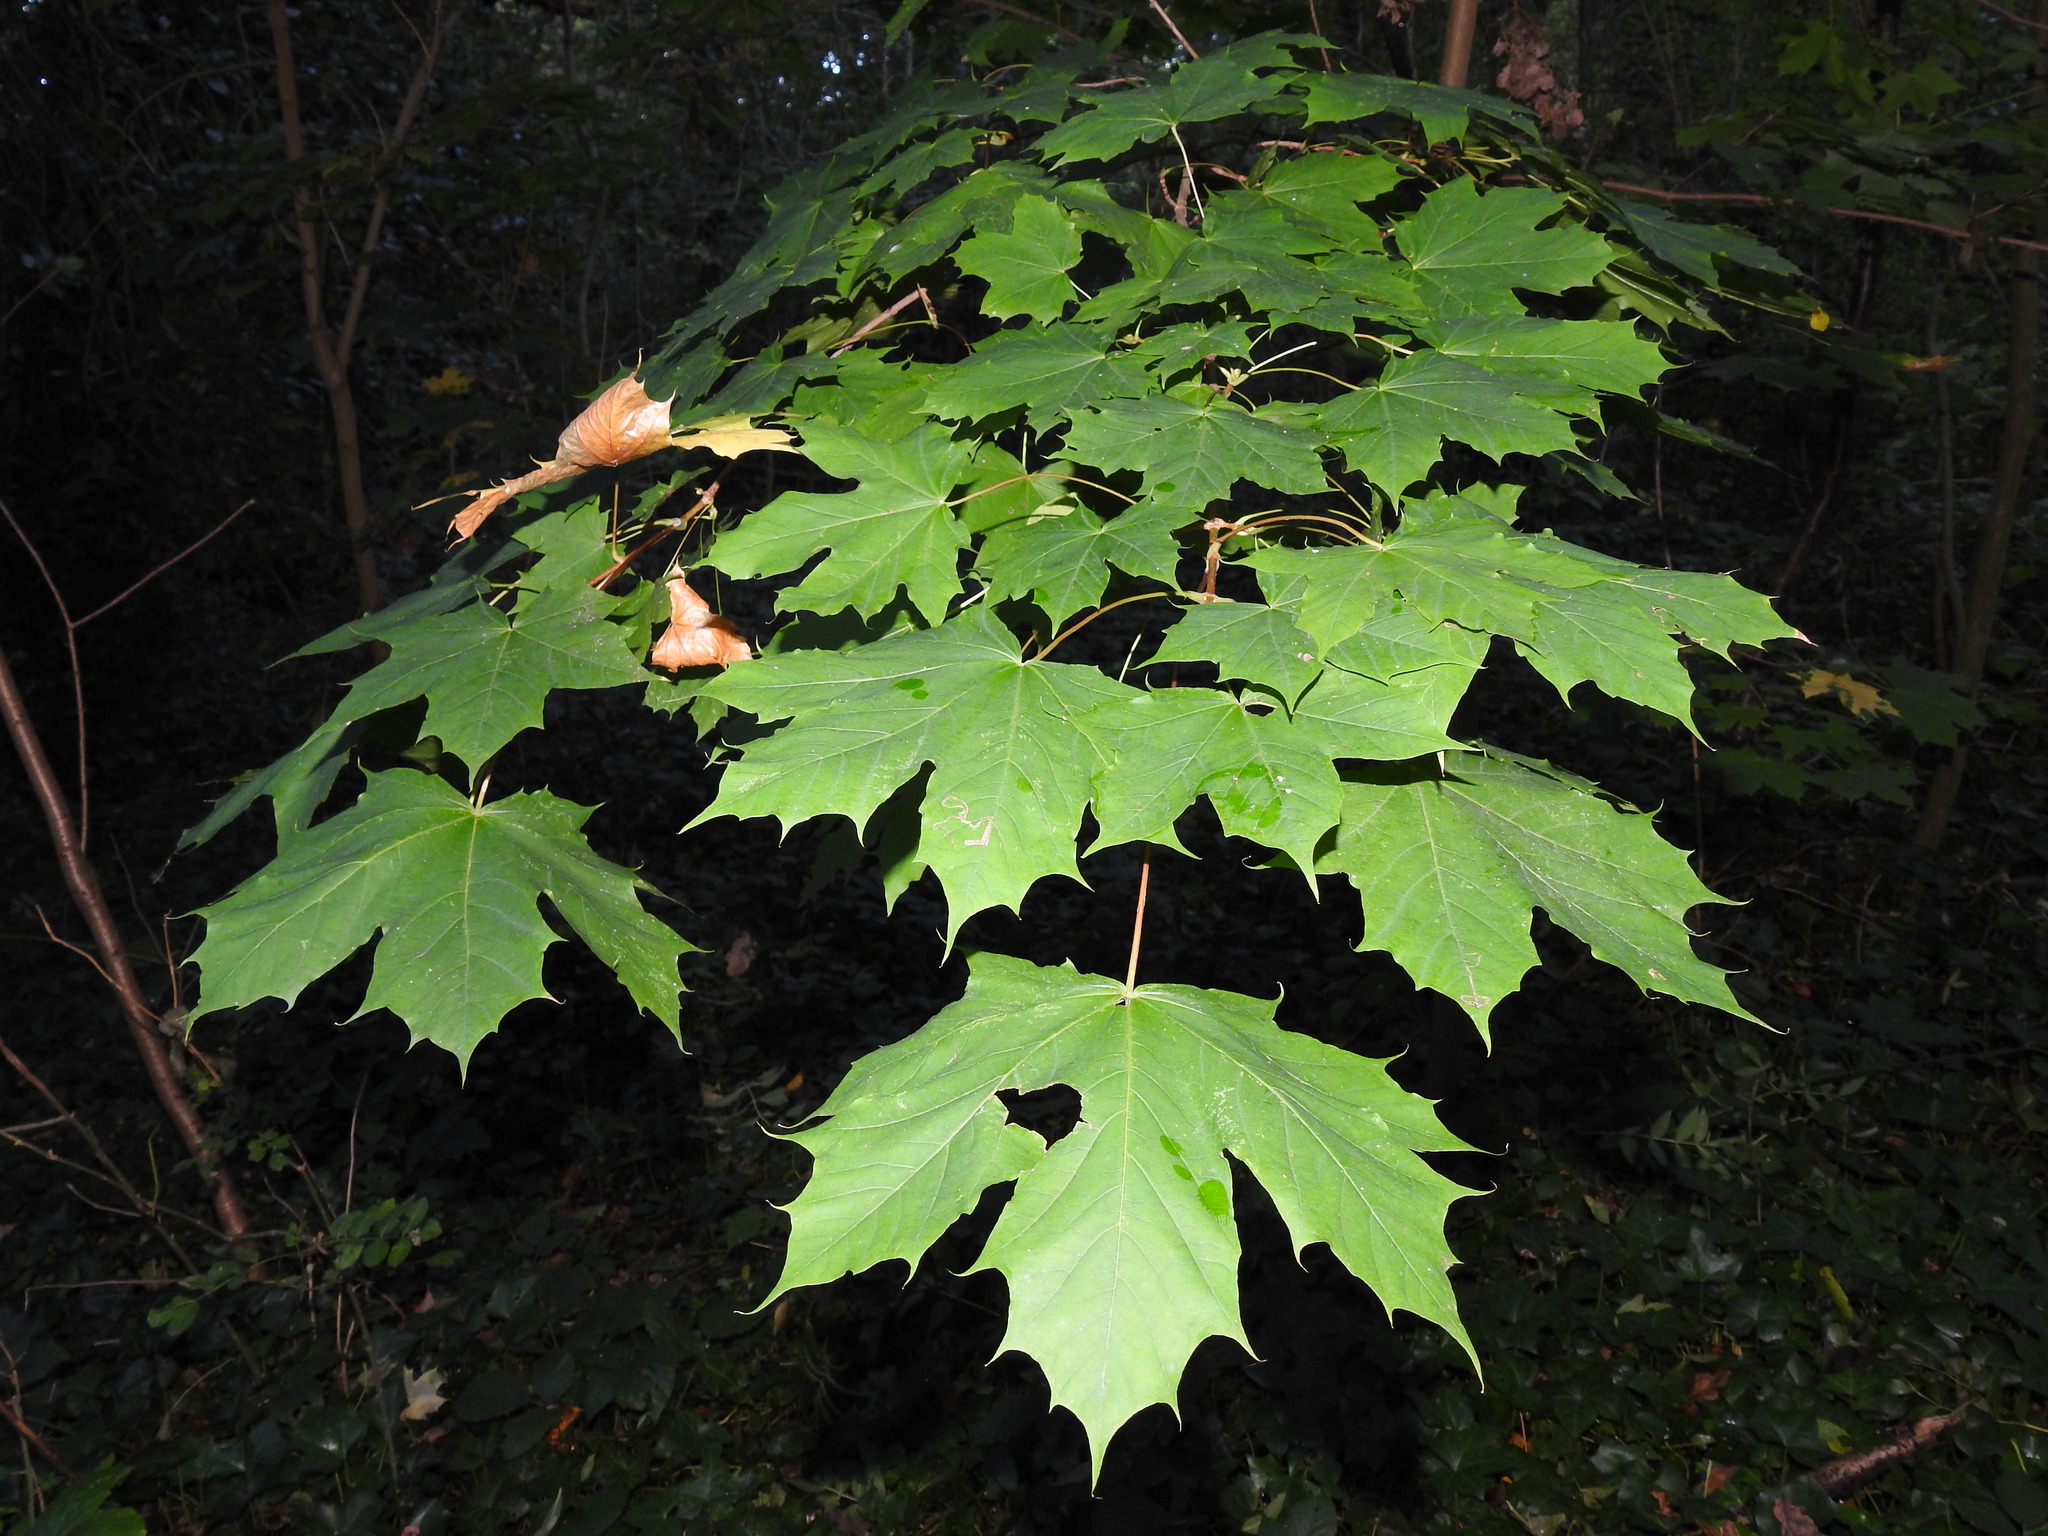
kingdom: Plantae
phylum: Tracheophyta
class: Magnoliopsida
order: Sapindales
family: Sapindaceae
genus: Acer
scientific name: Acer platanoides
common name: Norway maple
